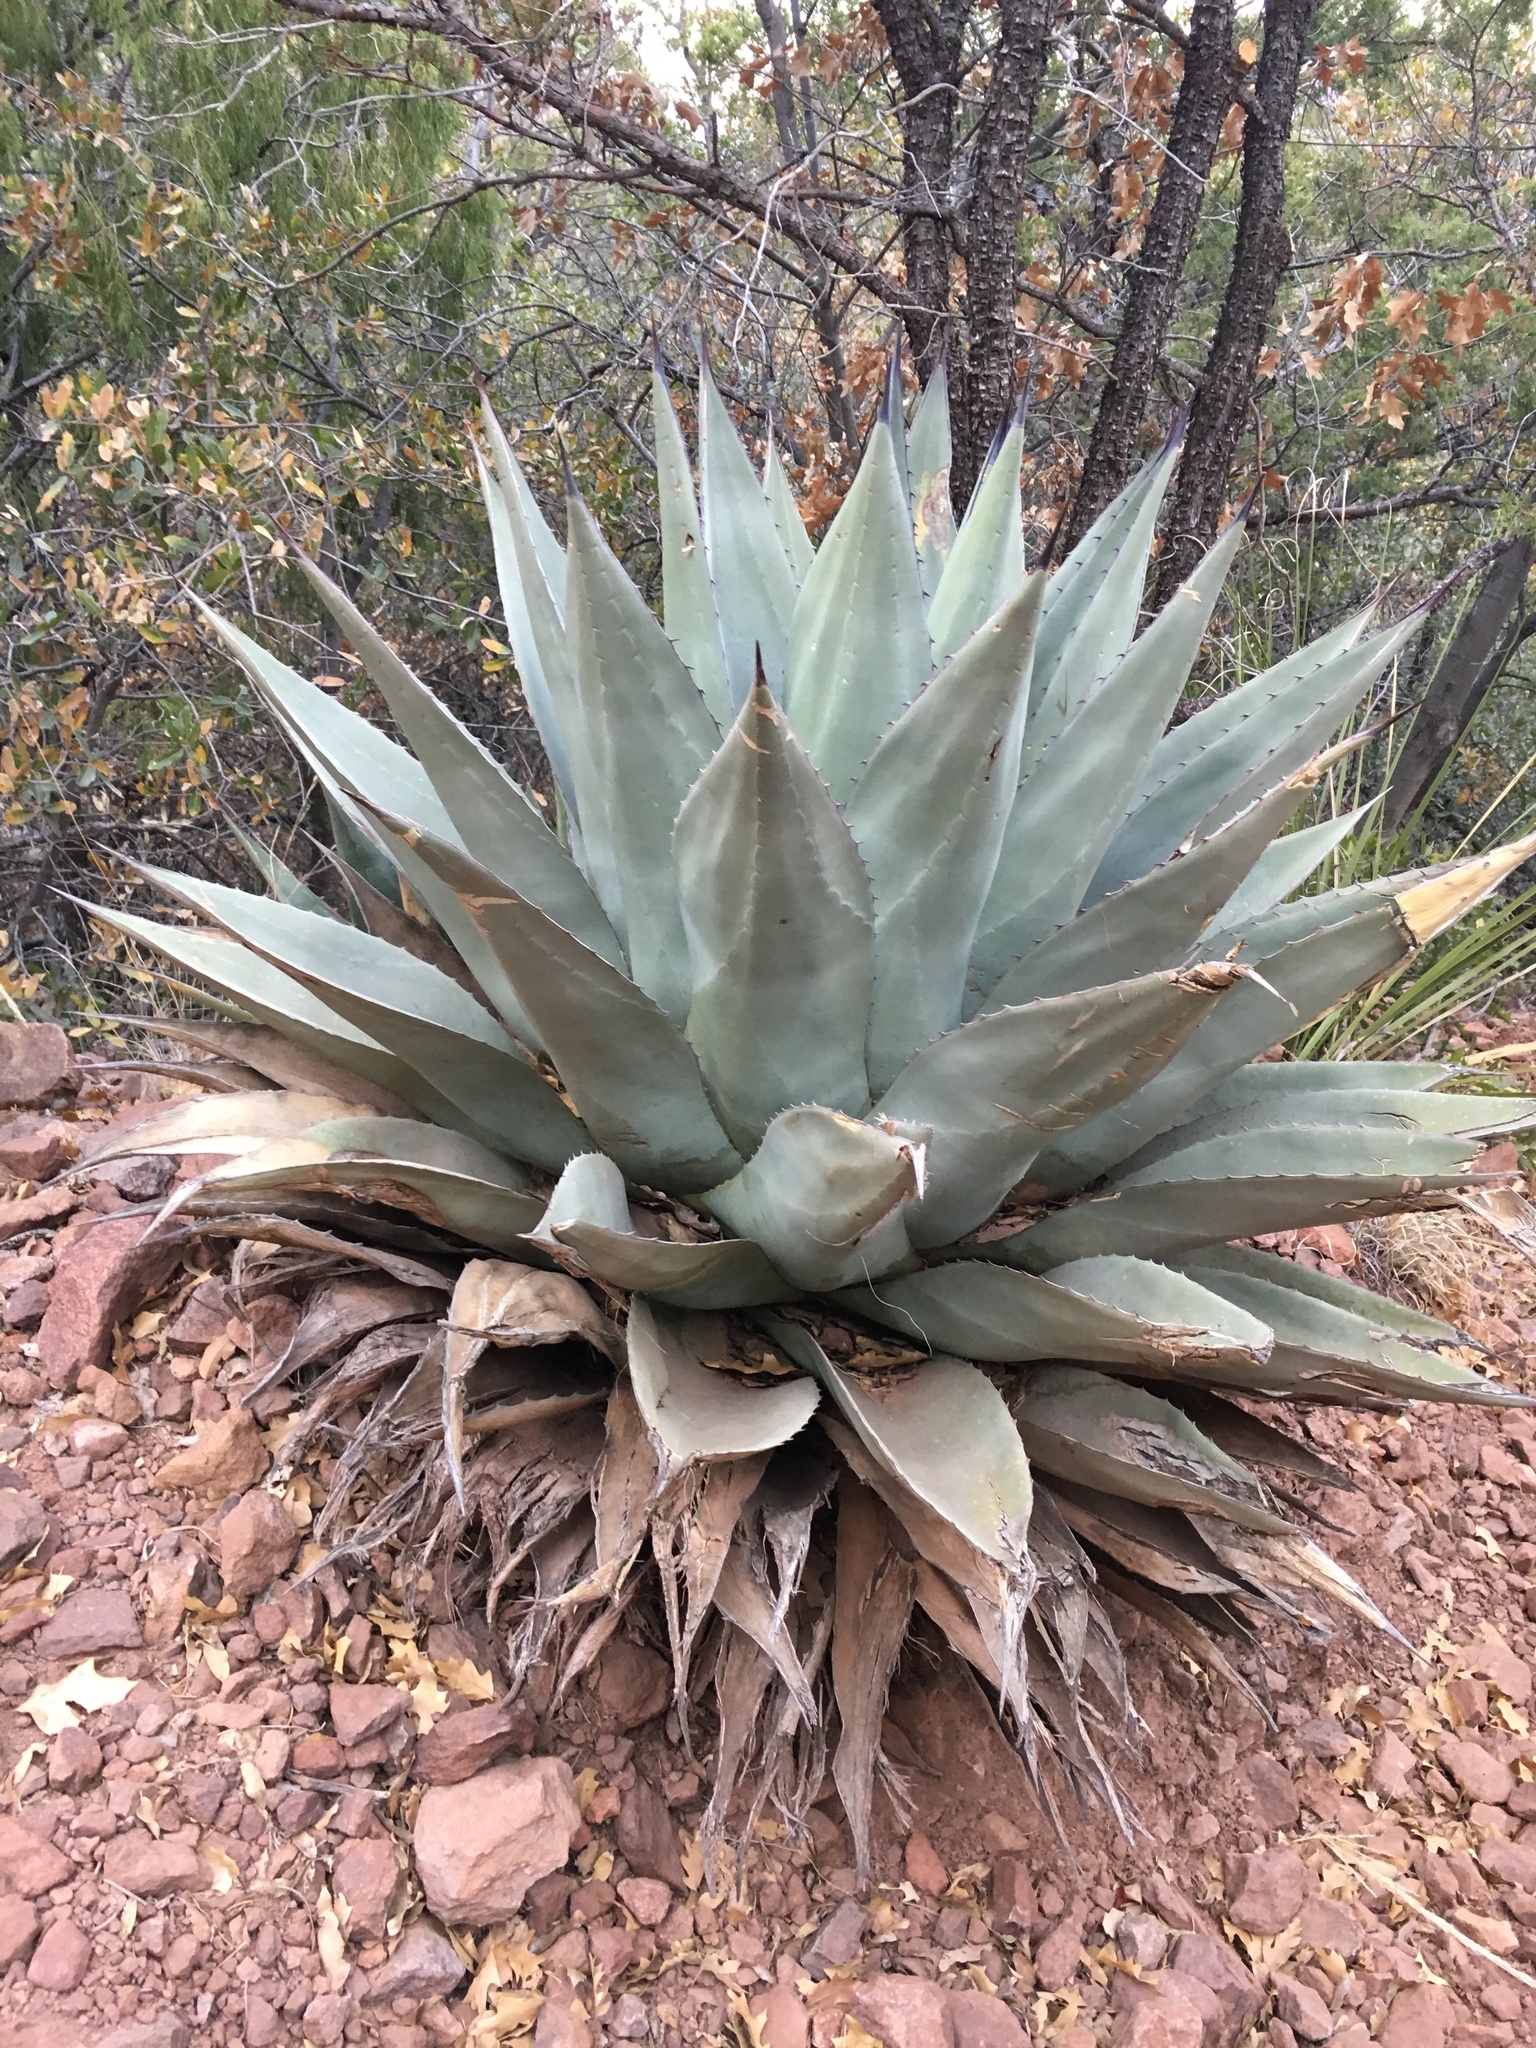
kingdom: Plantae
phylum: Tracheophyta
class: Liliopsida
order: Asparagales
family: Asparagaceae
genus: Agave
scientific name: Agave havardiana
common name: Havard agave
